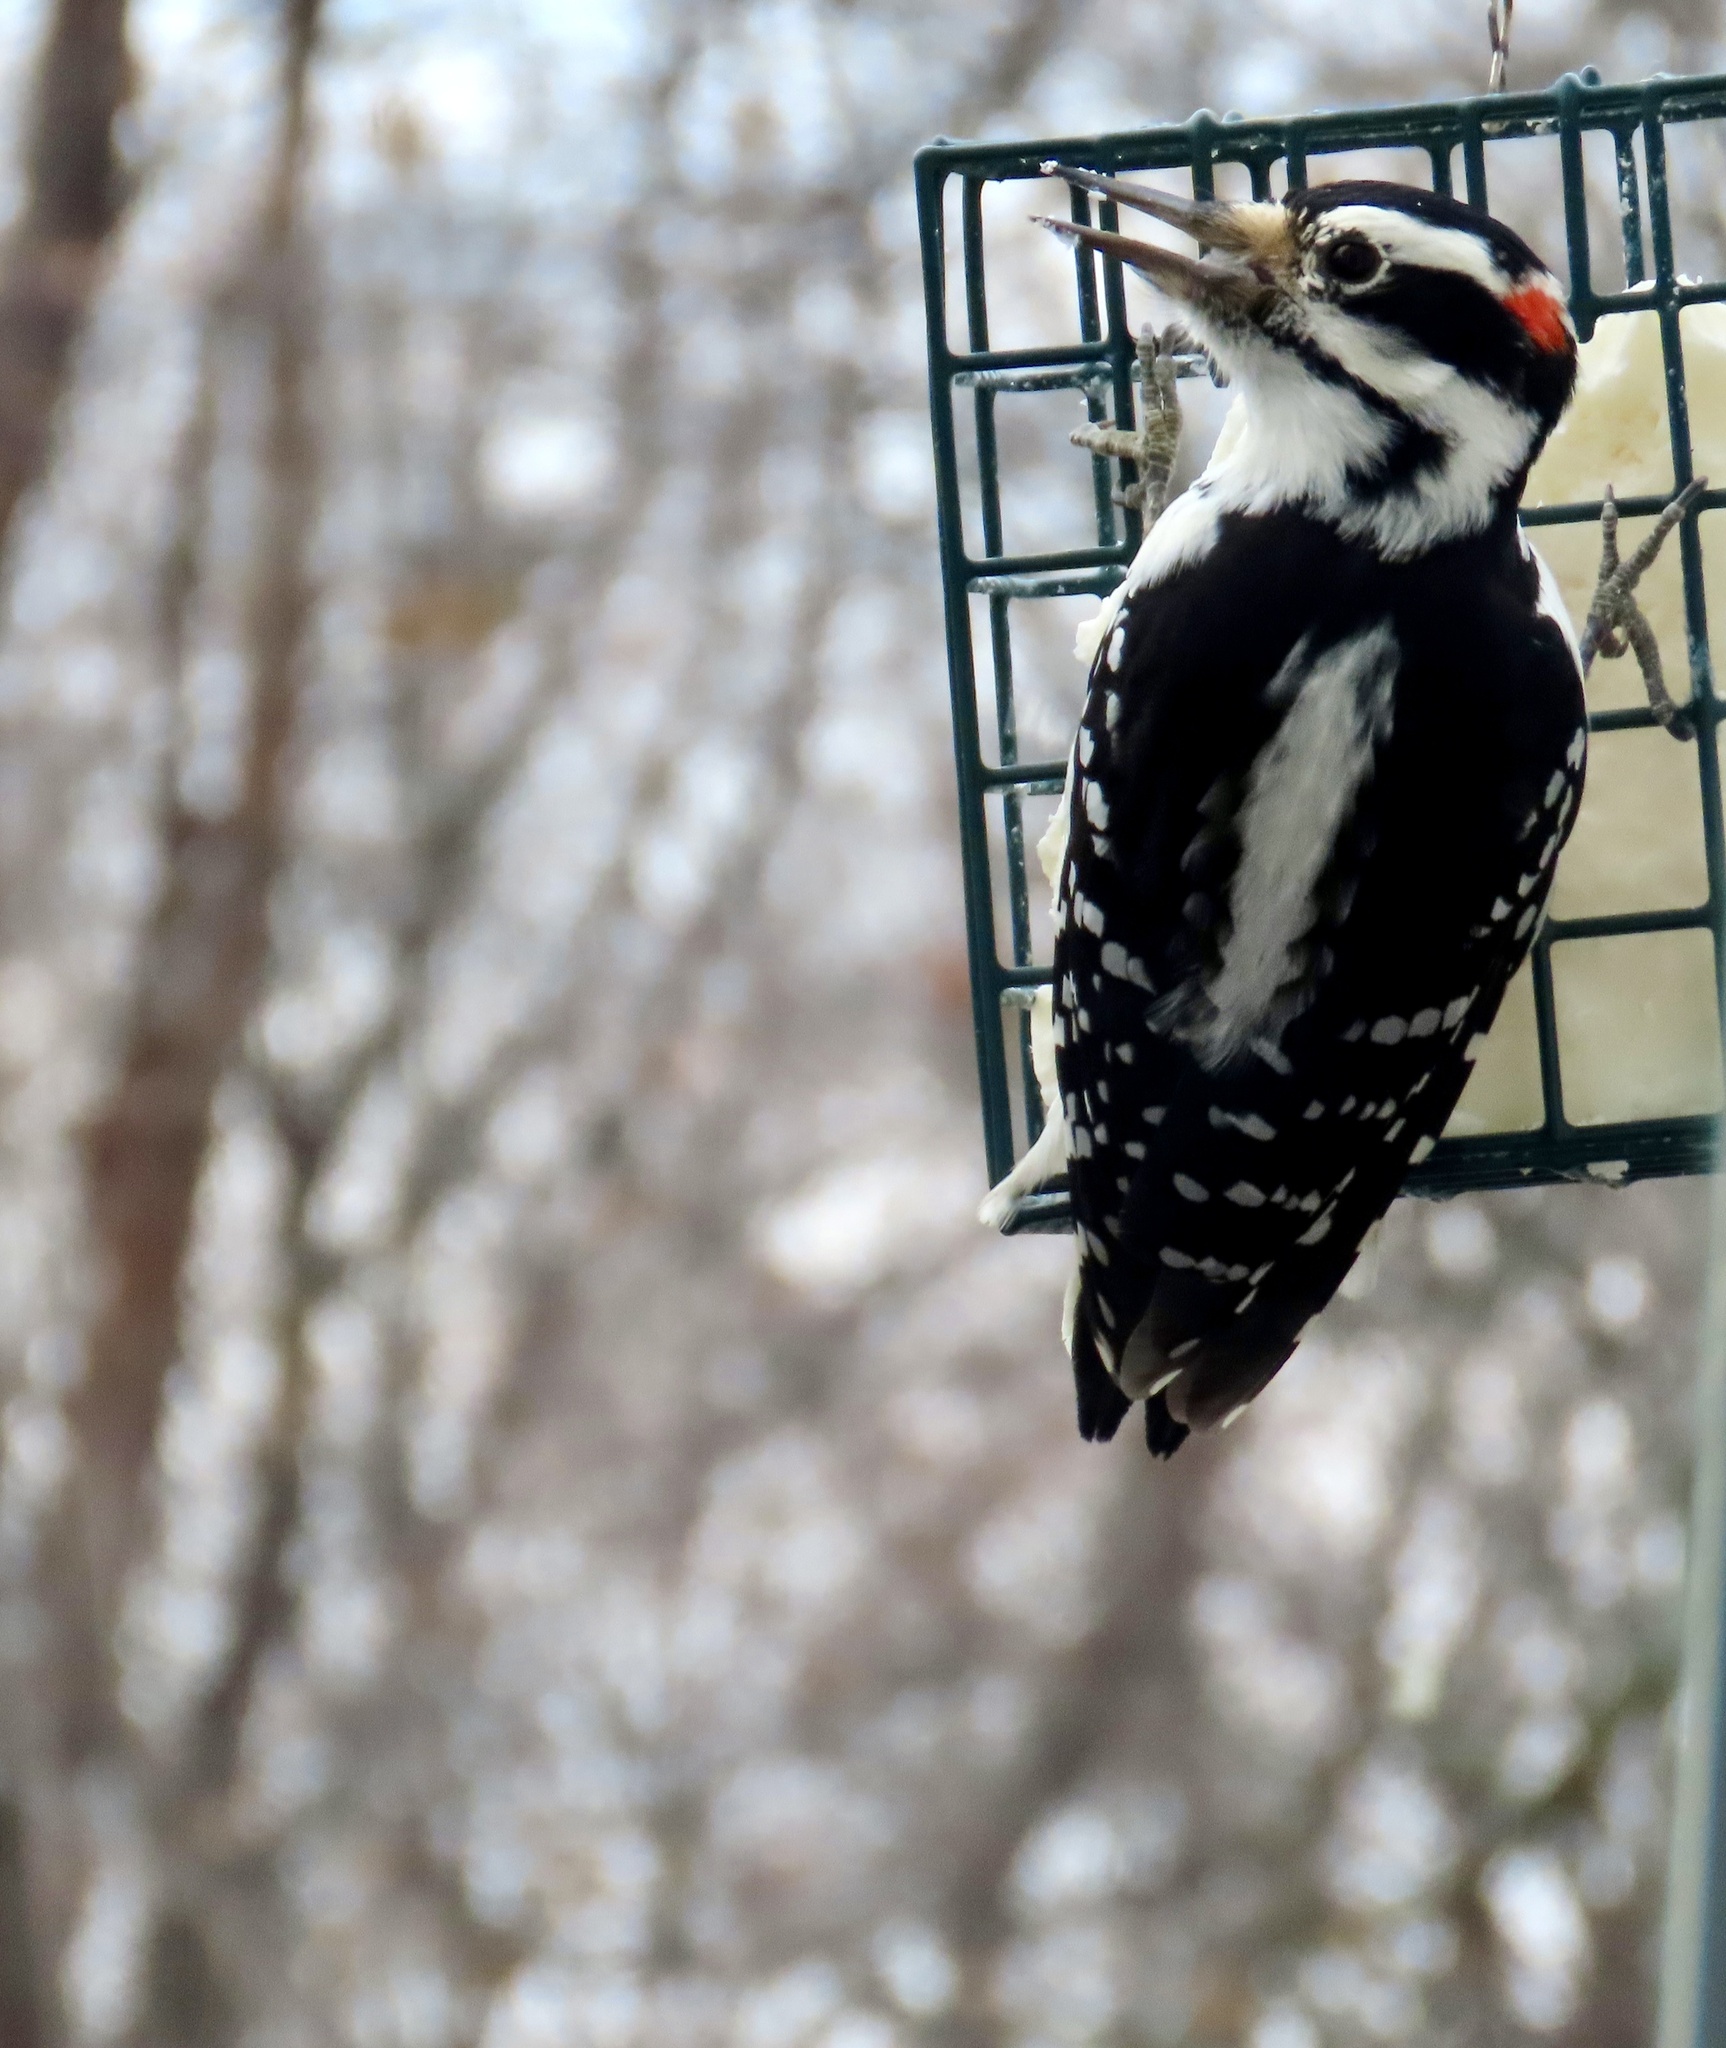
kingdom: Animalia
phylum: Chordata
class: Aves
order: Piciformes
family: Picidae
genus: Leuconotopicus
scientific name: Leuconotopicus villosus
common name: Hairy woodpecker
